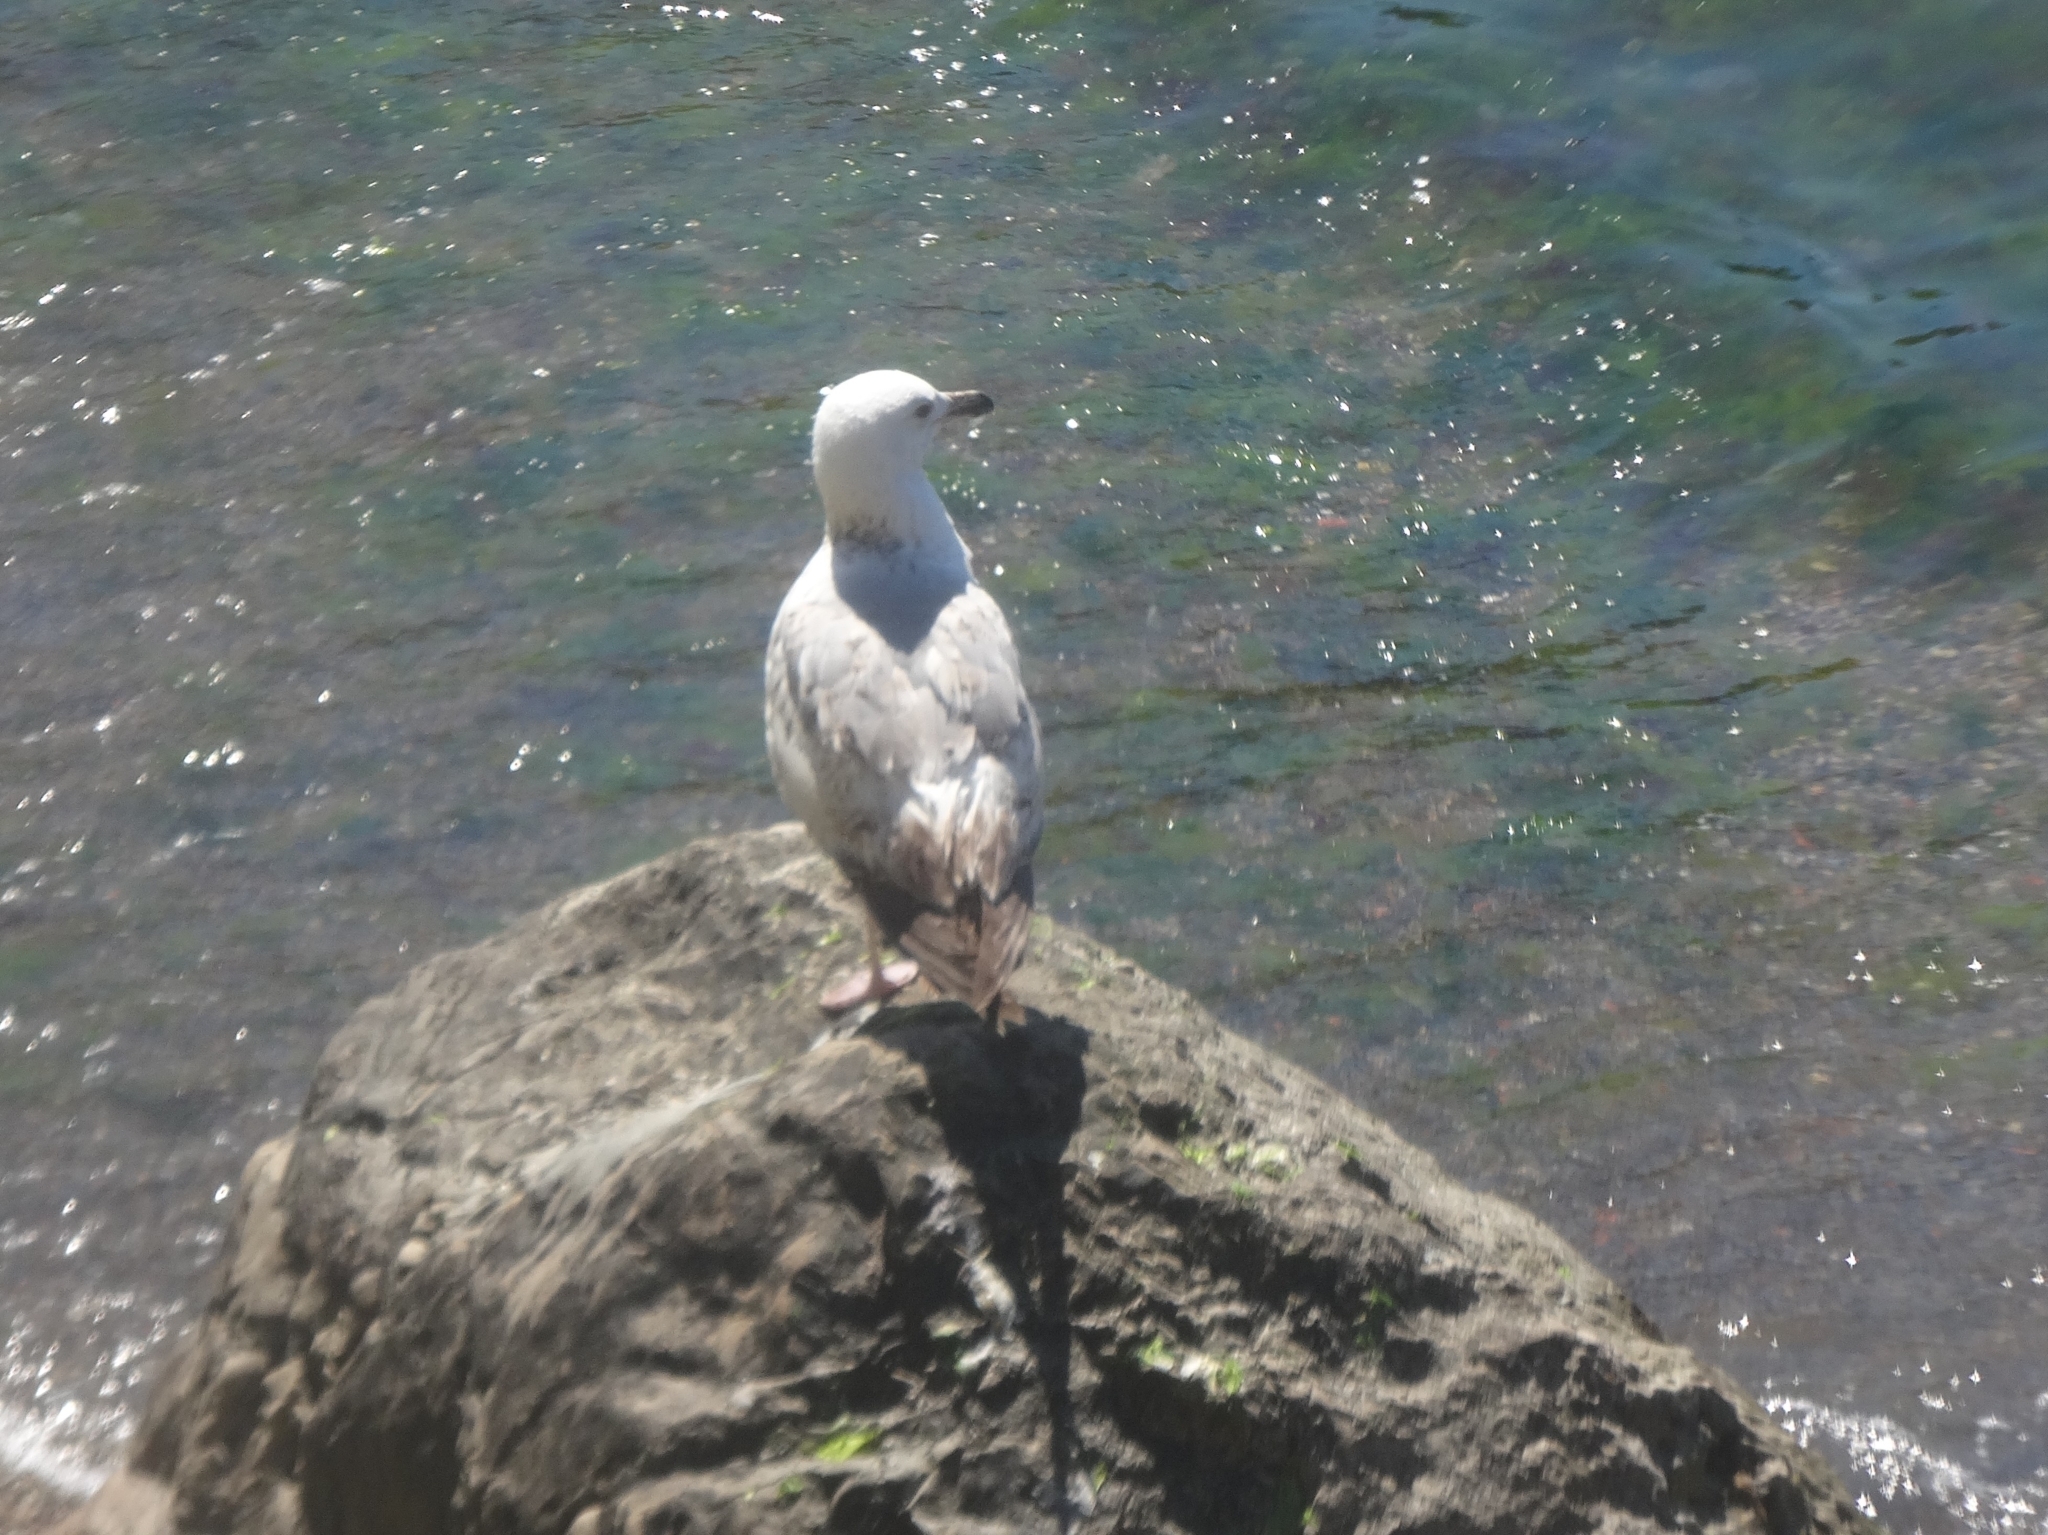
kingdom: Animalia
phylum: Chordata
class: Aves
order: Charadriiformes
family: Laridae
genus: Larus
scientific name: Larus michahellis
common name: Yellow-legged gull
